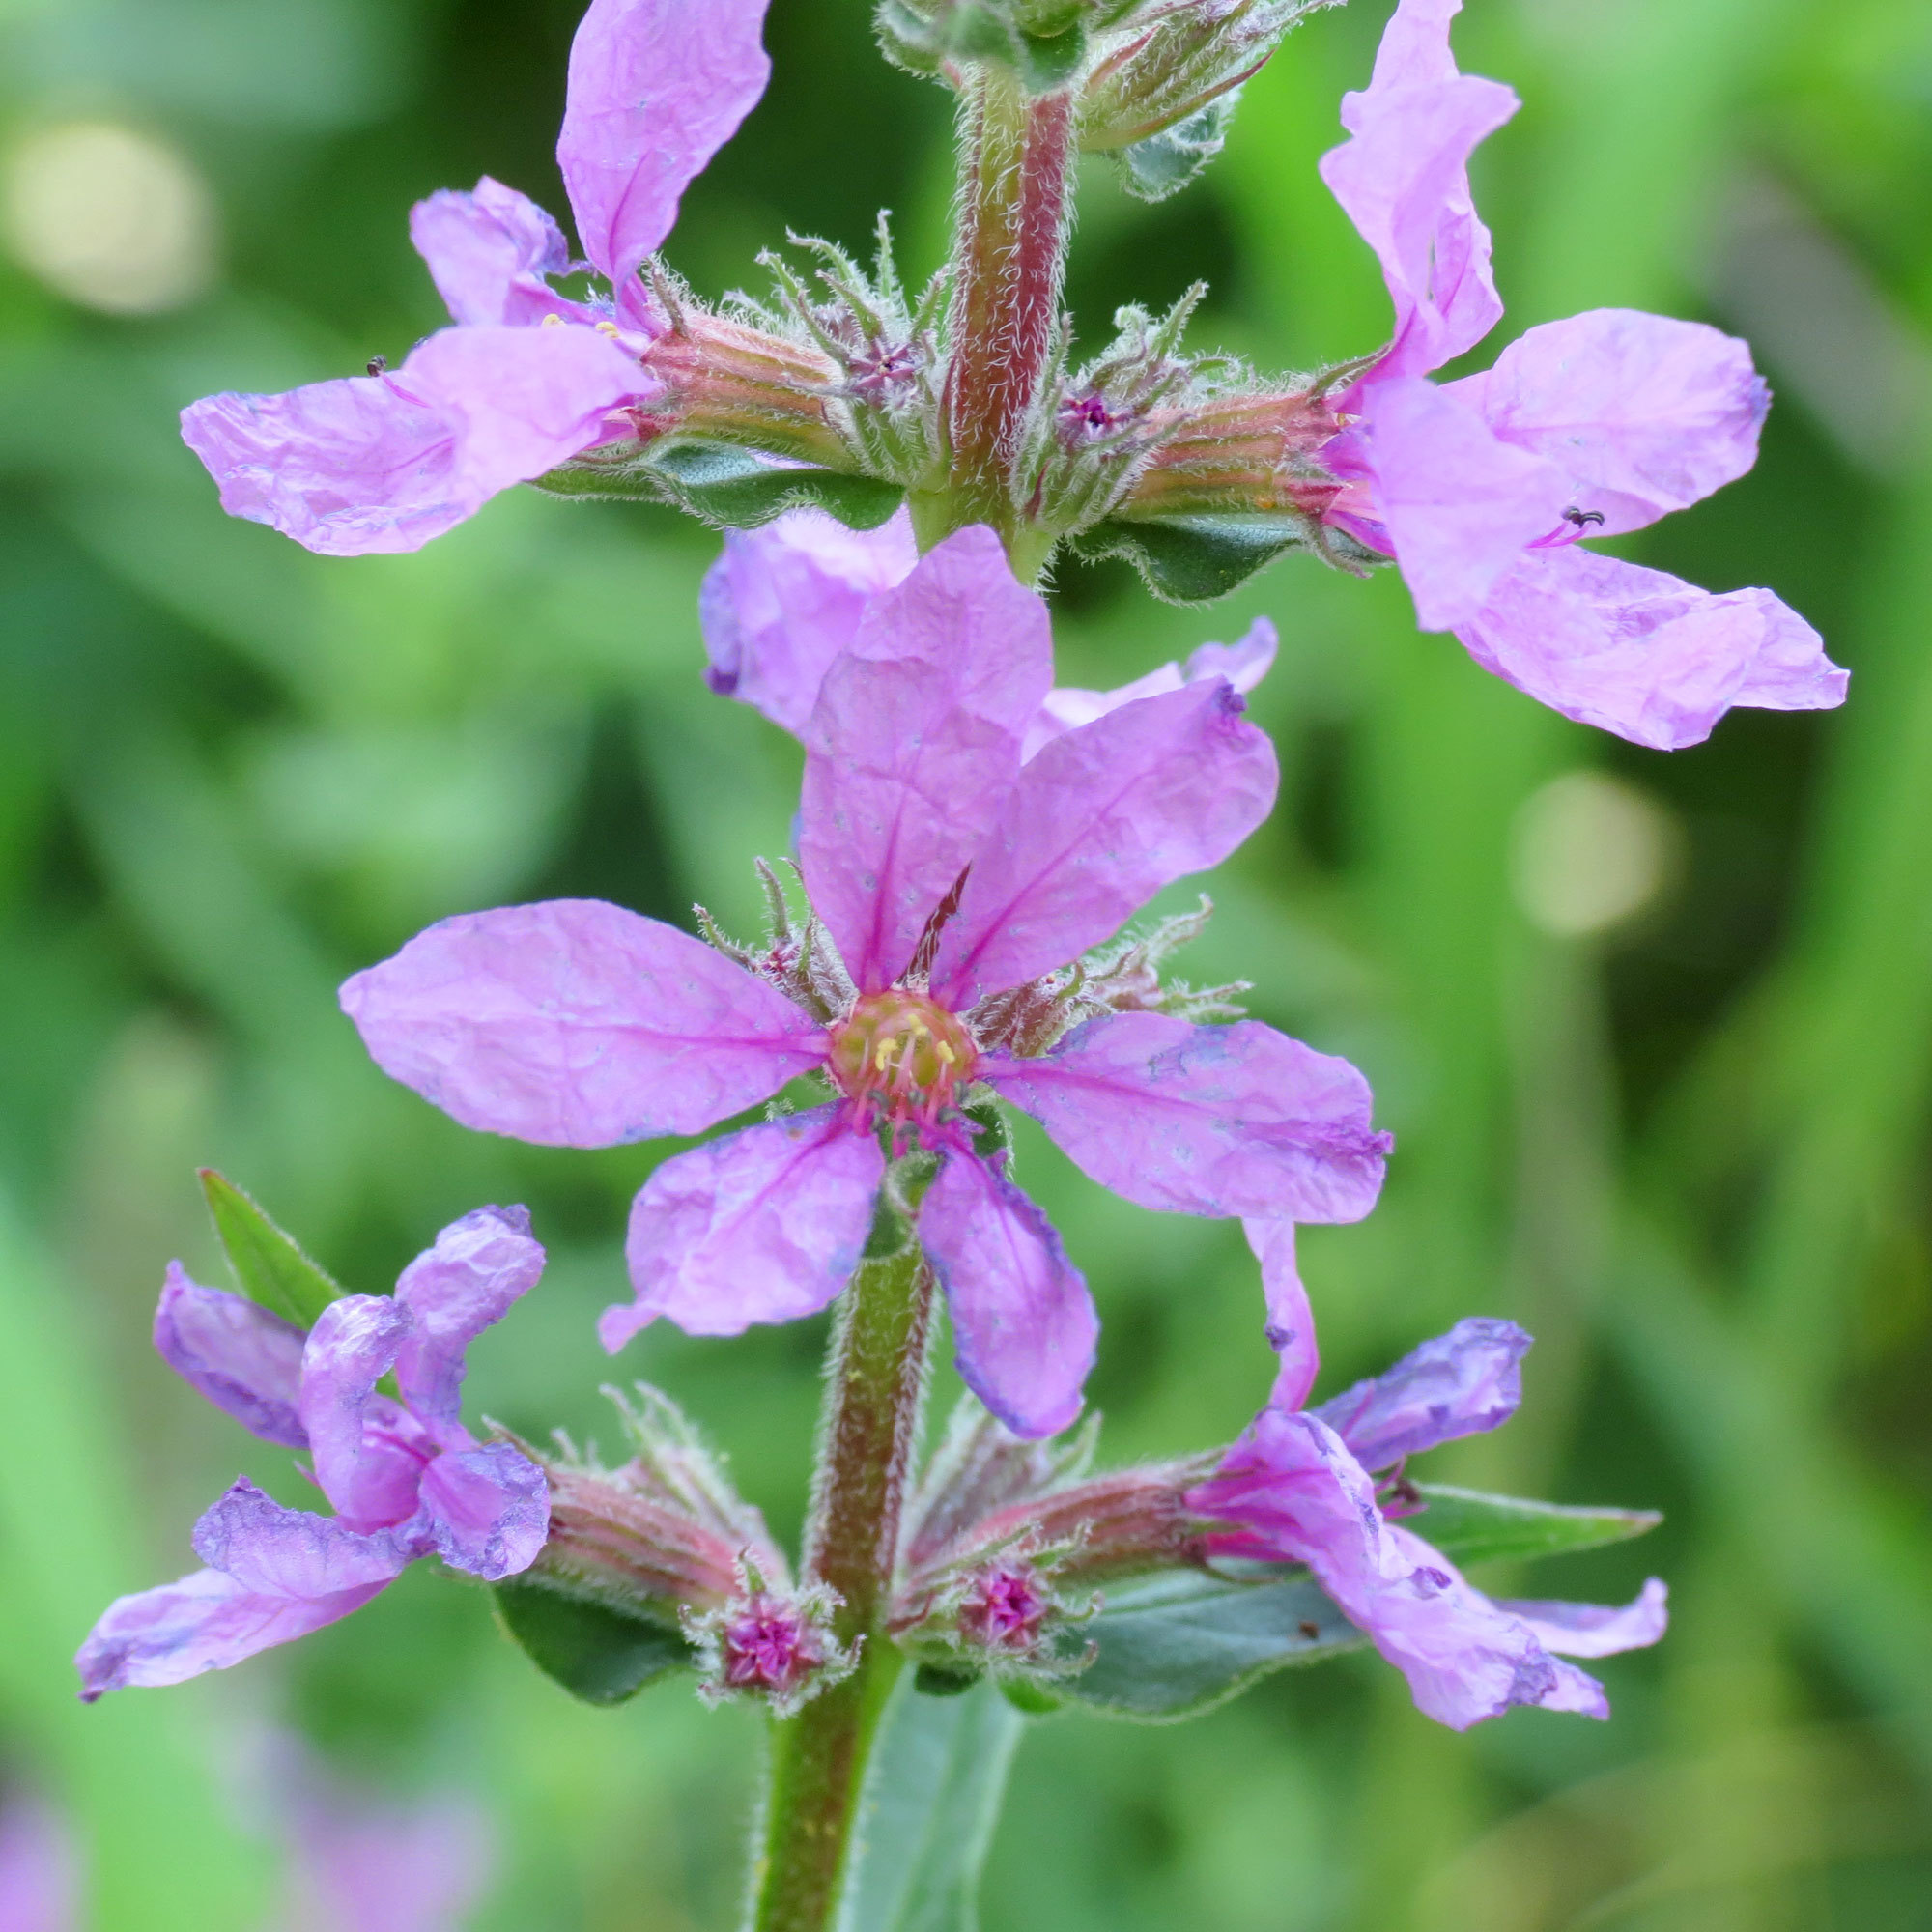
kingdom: Plantae
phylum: Tracheophyta
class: Magnoliopsida
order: Myrtales
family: Lythraceae
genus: Lythrum
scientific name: Lythrum salicaria
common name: Purple loosestrife
